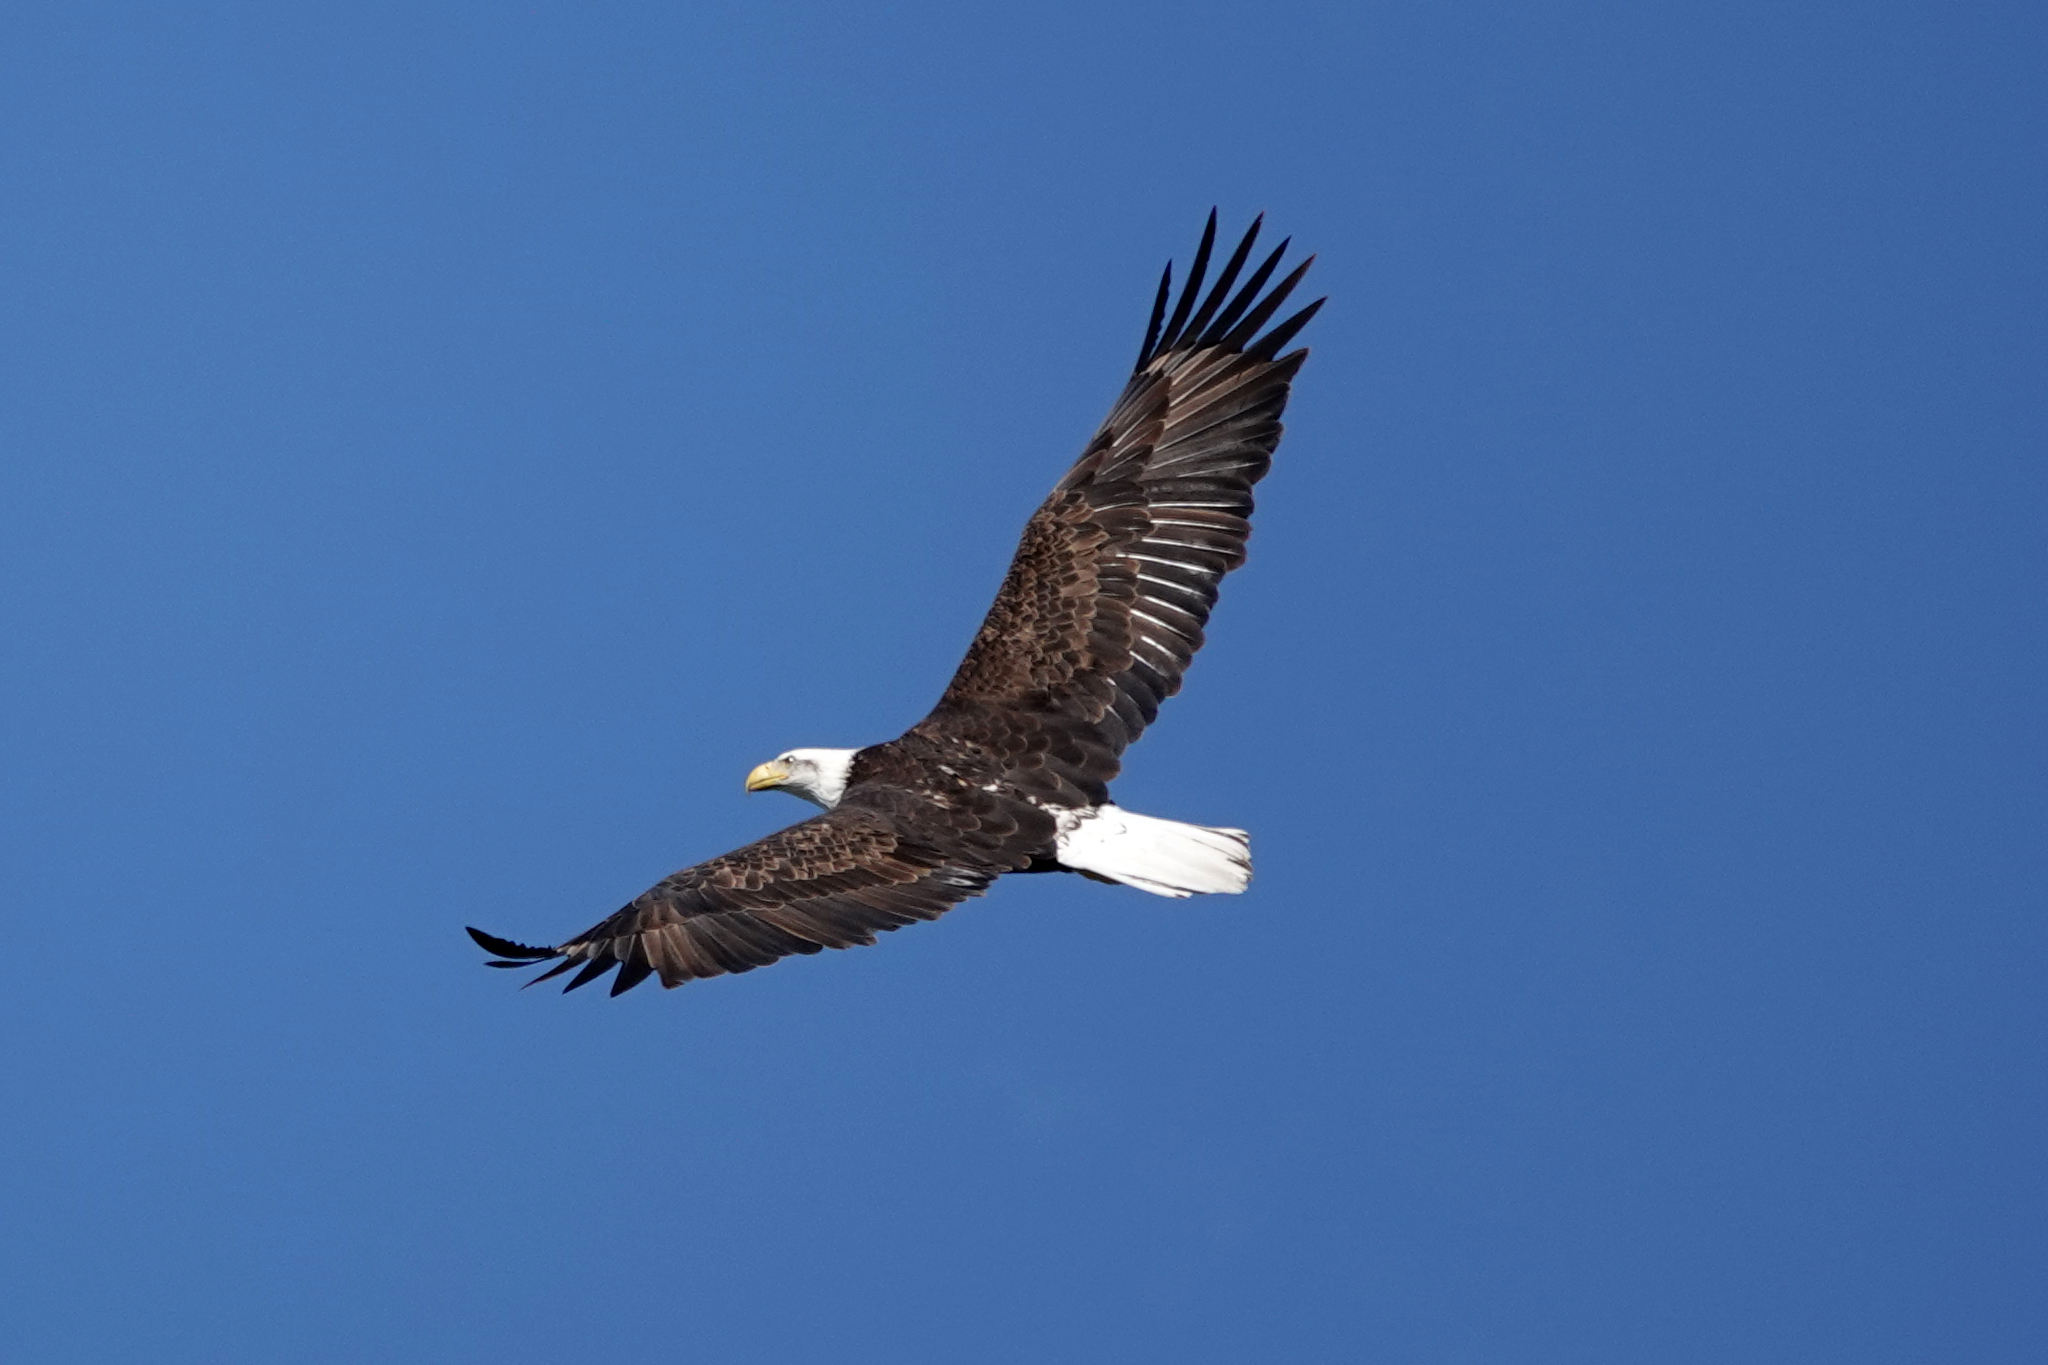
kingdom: Animalia
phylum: Chordata
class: Aves
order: Accipitriformes
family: Accipitridae
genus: Haliaeetus
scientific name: Haliaeetus leucocephalus
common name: Bald eagle
